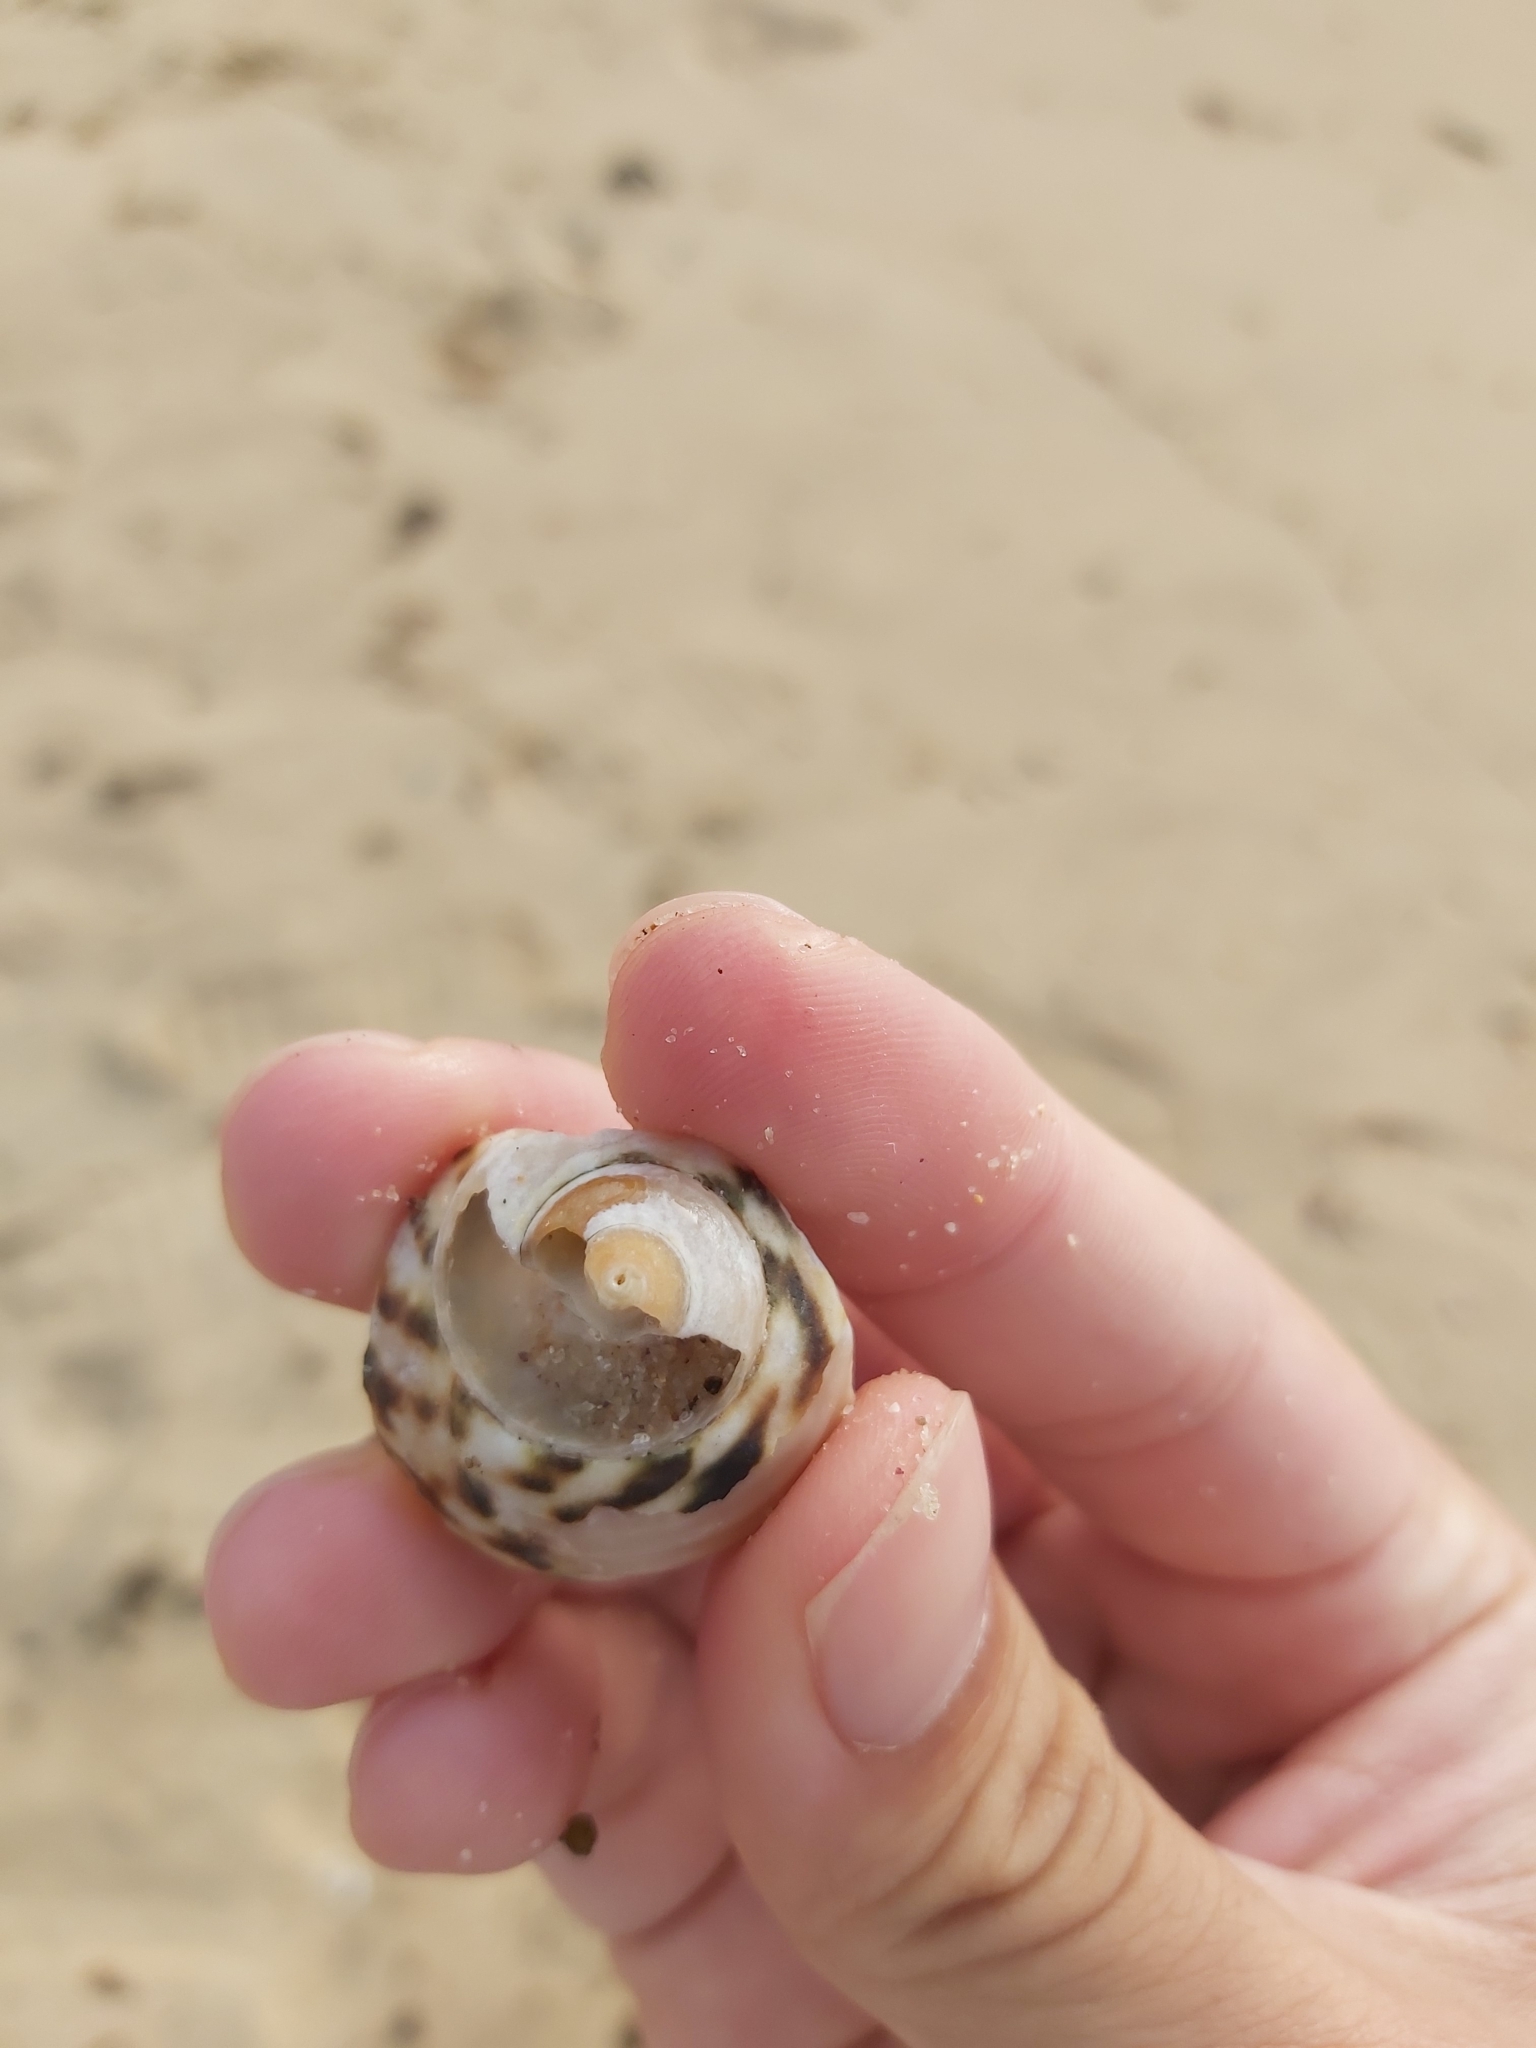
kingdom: Animalia
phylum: Mollusca
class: Gastropoda
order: Trochida
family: Turbinidae
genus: Lunella
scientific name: Lunella undulata
